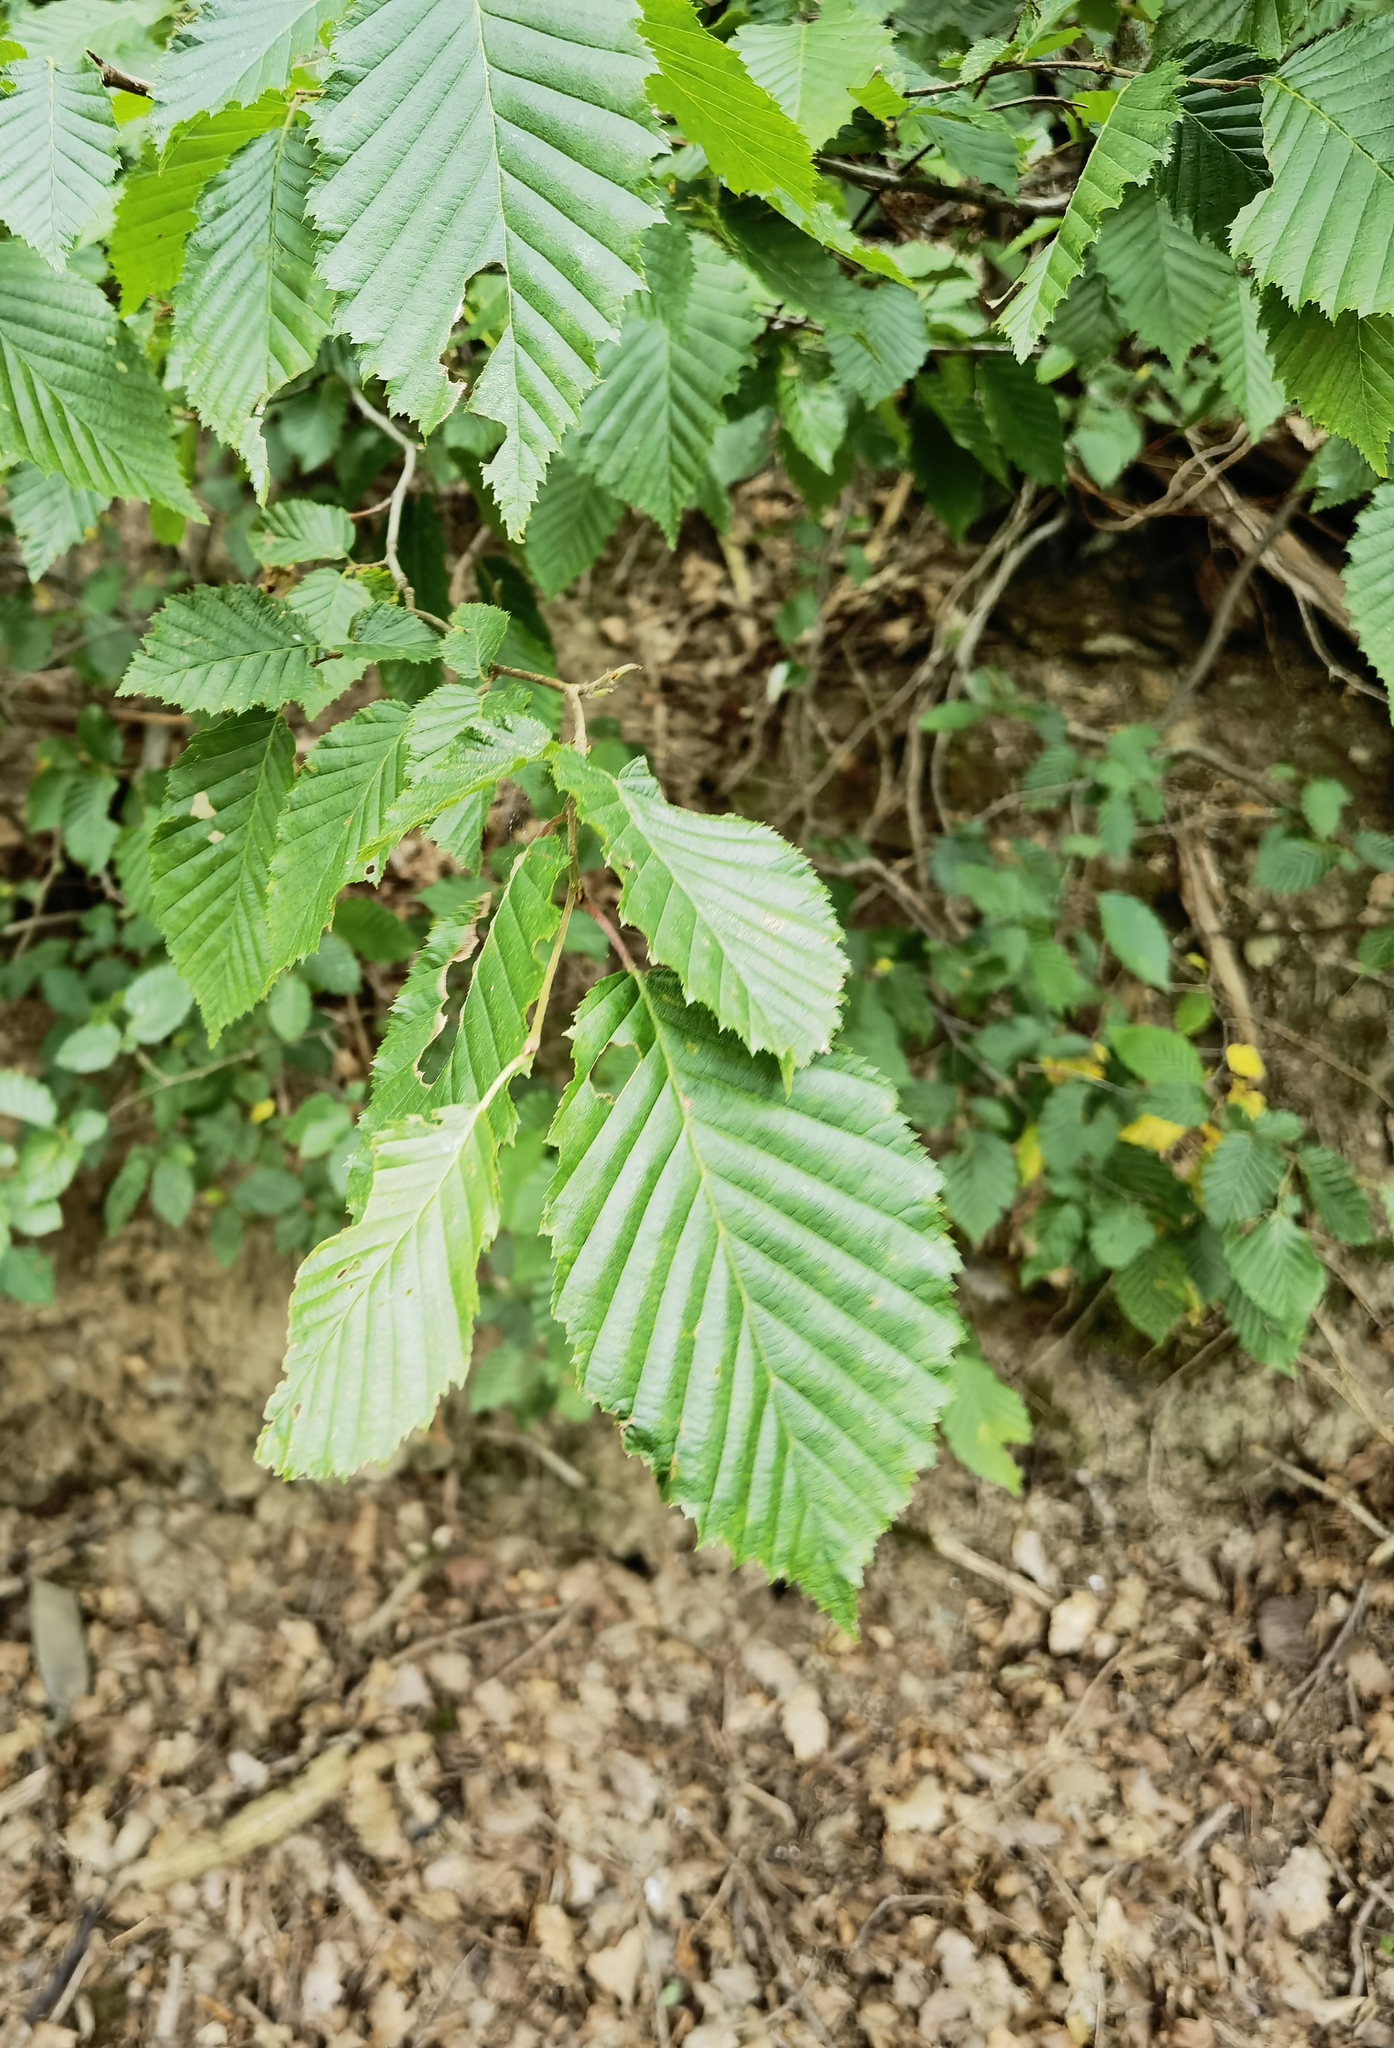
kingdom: Plantae
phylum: Tracheophyta
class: Magnoliopsida
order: Fagales
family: Betulaceae
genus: Carpinus
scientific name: Carpinus betulus
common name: Hornbeam
